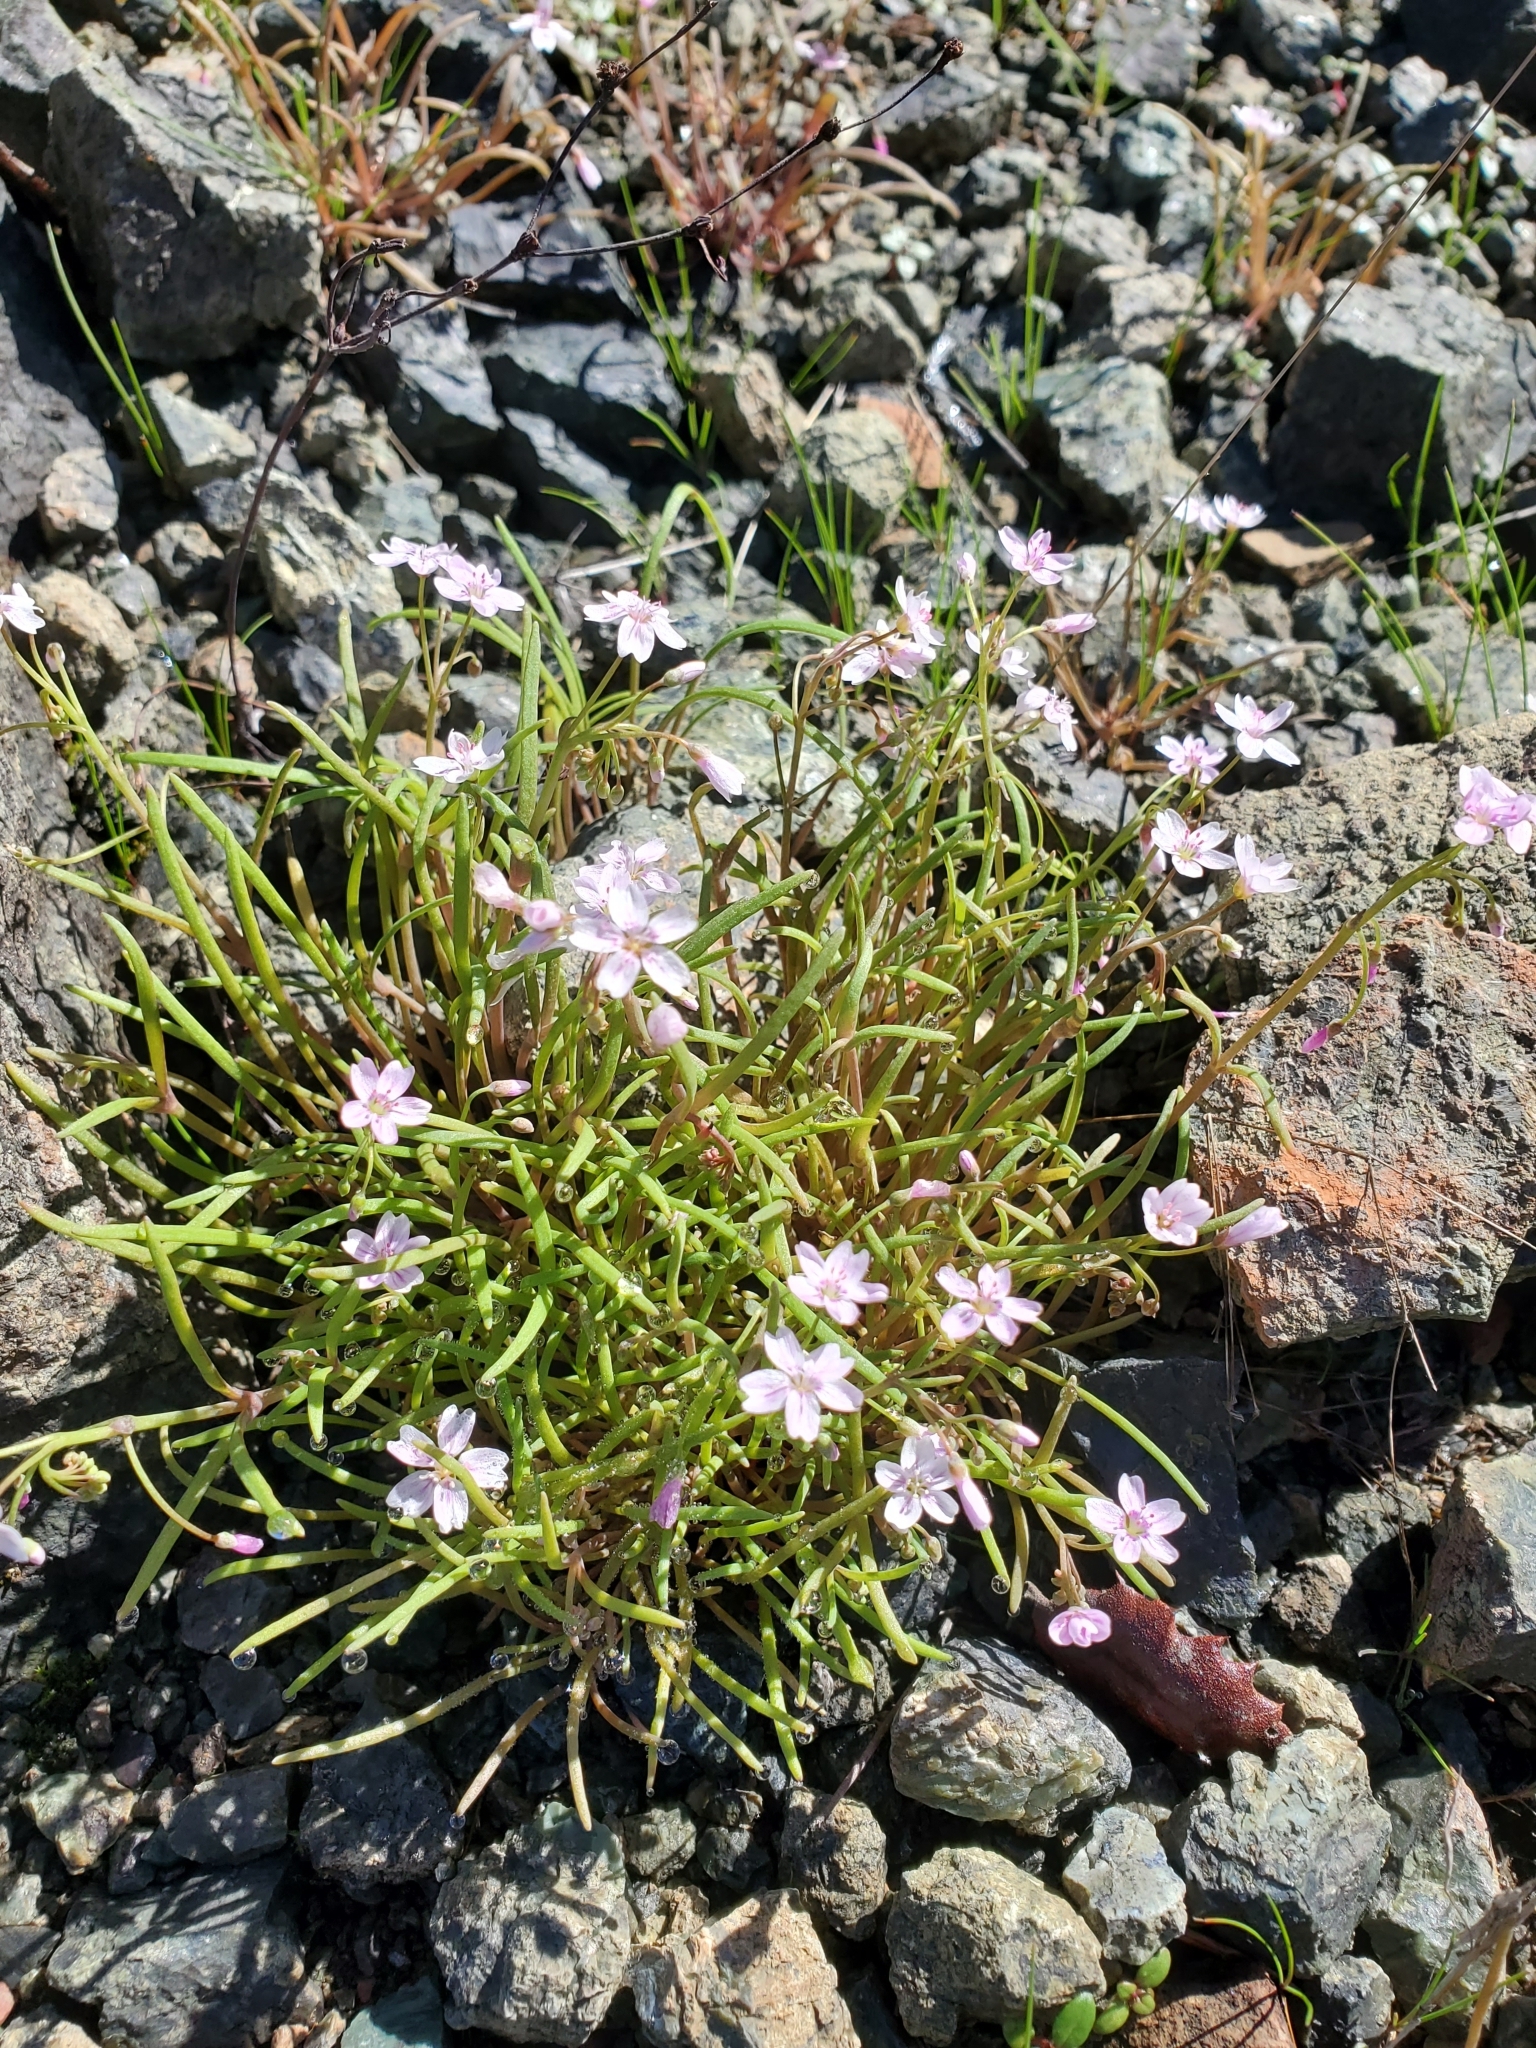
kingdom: Plantae
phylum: Tracheophyta
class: Magnoliopsida
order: Caryophyllales
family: Montiaceae
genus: Claytonia
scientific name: Claytonia gypsophiloides
